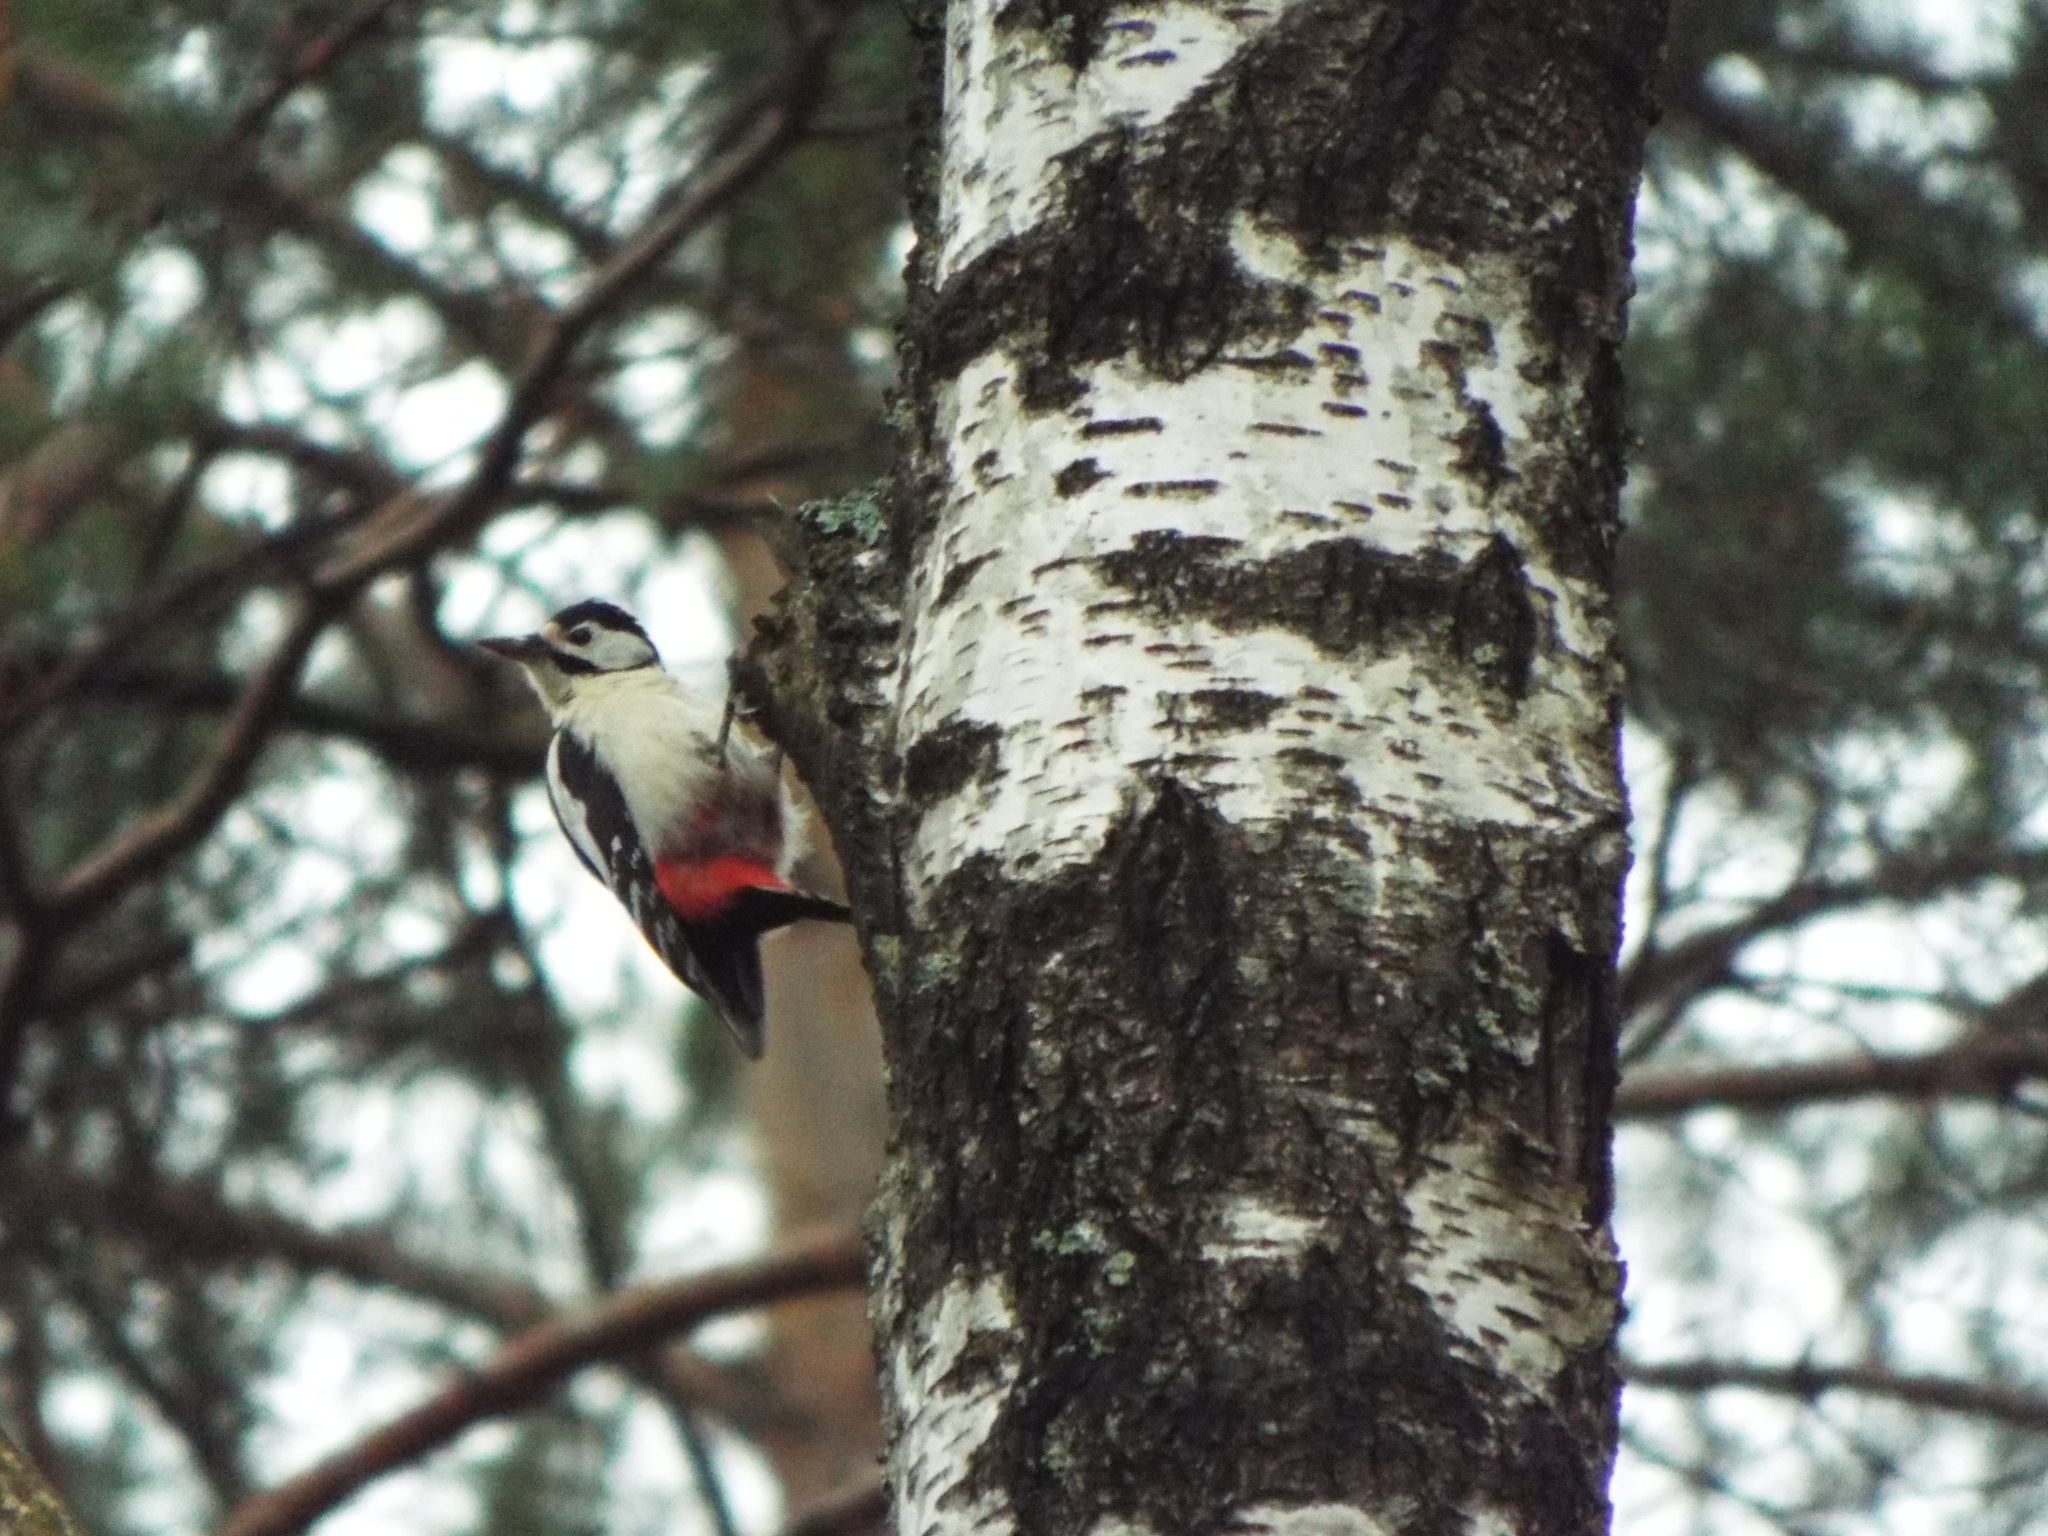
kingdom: Animalia
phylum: Chordata
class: Aves
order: Piciformes
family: Picidae
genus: Dendrocopos
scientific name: Dendrocopos major
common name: Great spotted woodpecker
